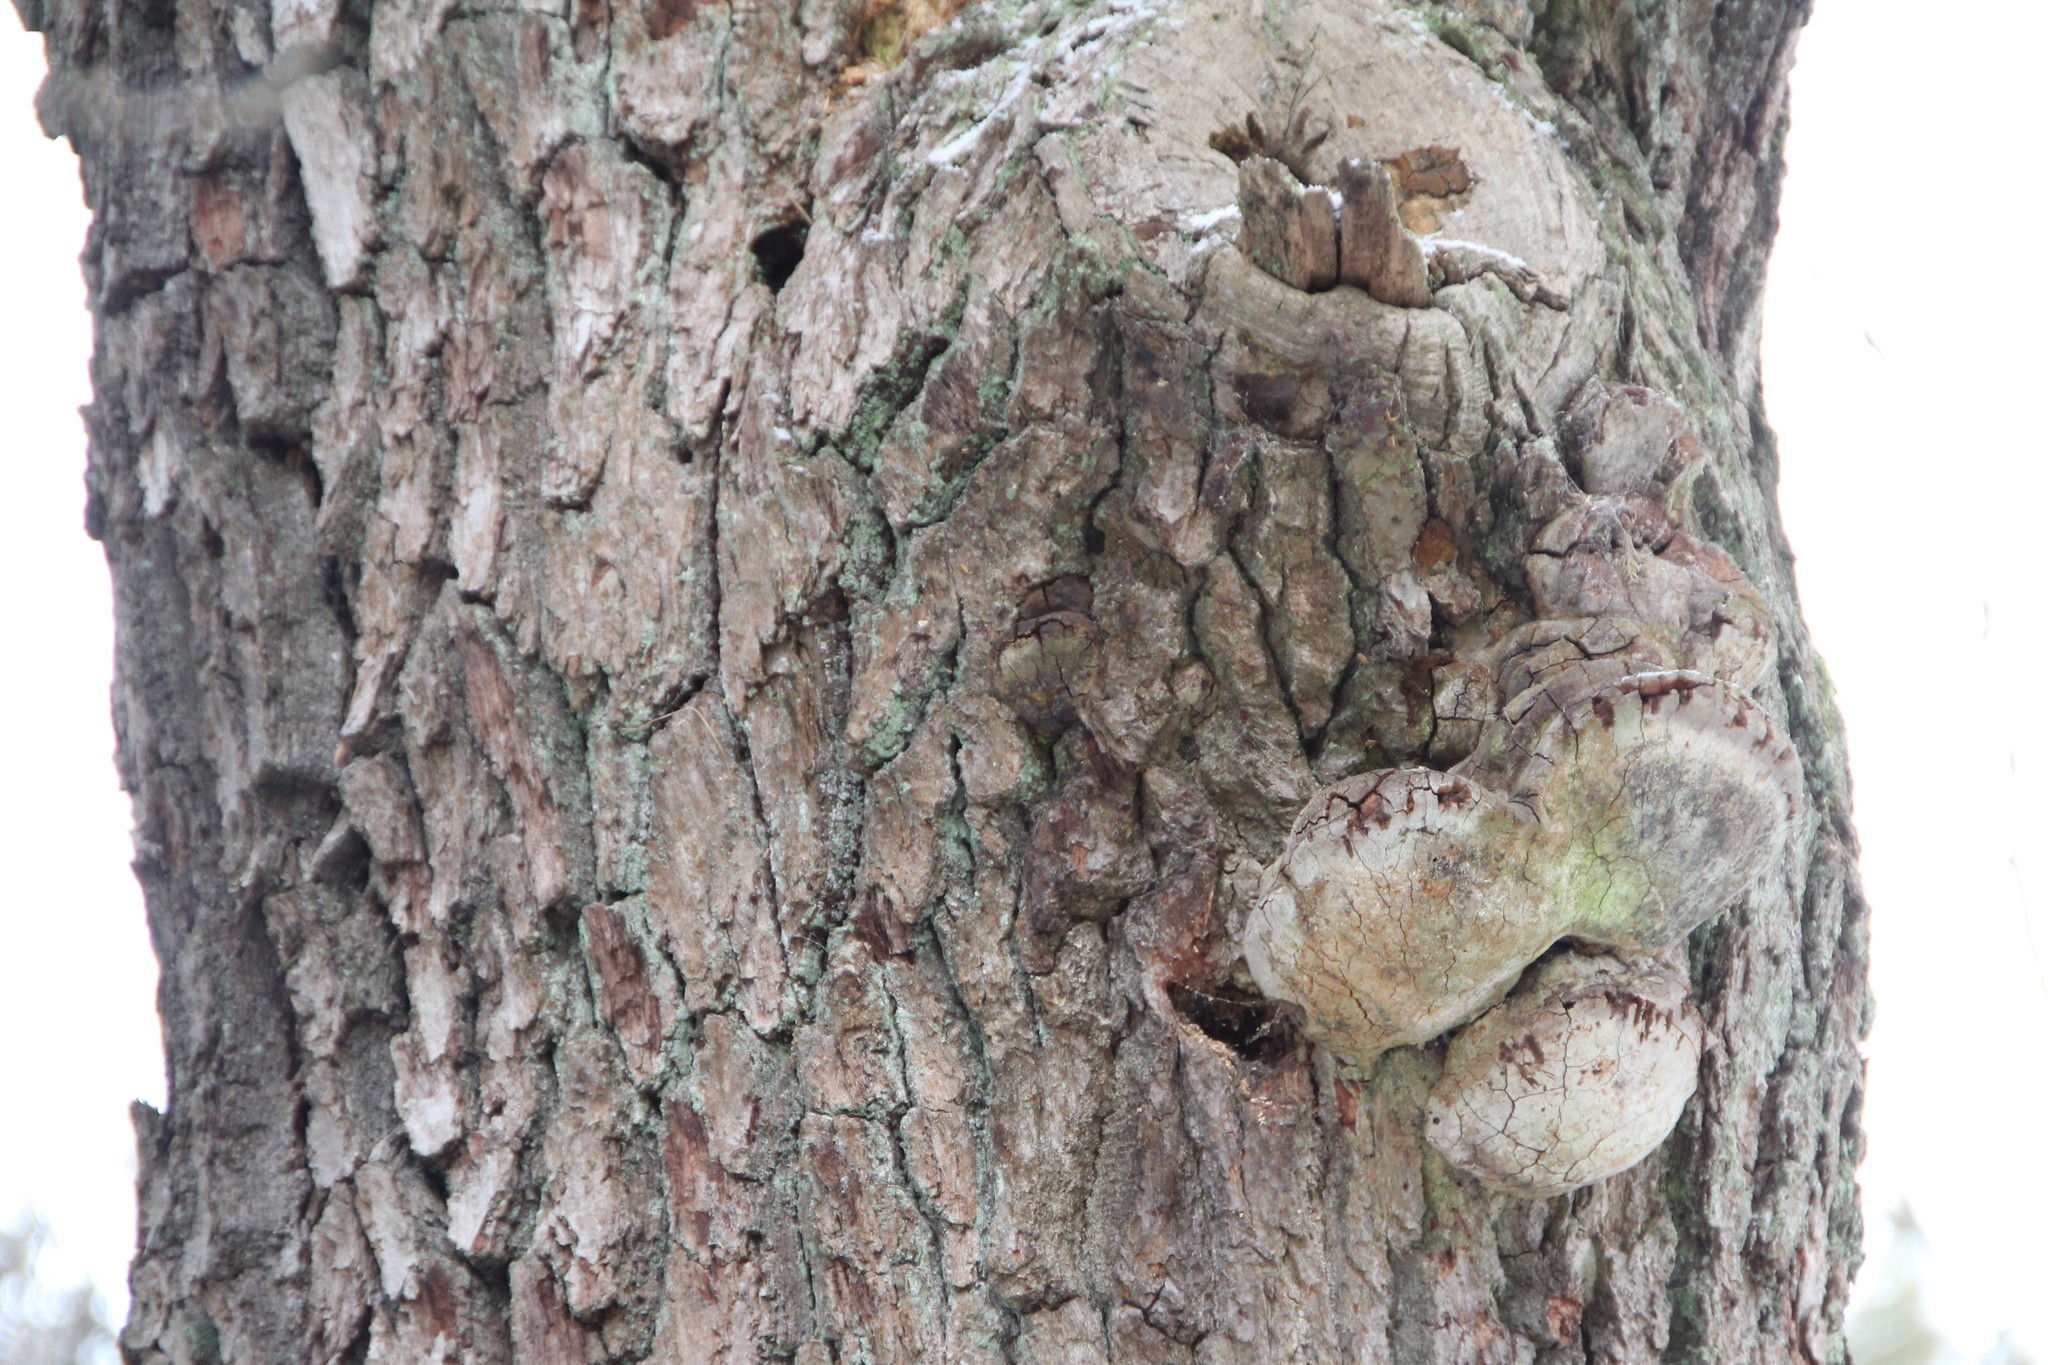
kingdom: Fungi
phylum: Basidiomycota
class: Agaricomycetes
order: Hymenochaetales
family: Hymenochaetaceae
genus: Fomitiporia
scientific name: Fomitiporia robusta
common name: Robust bracket
